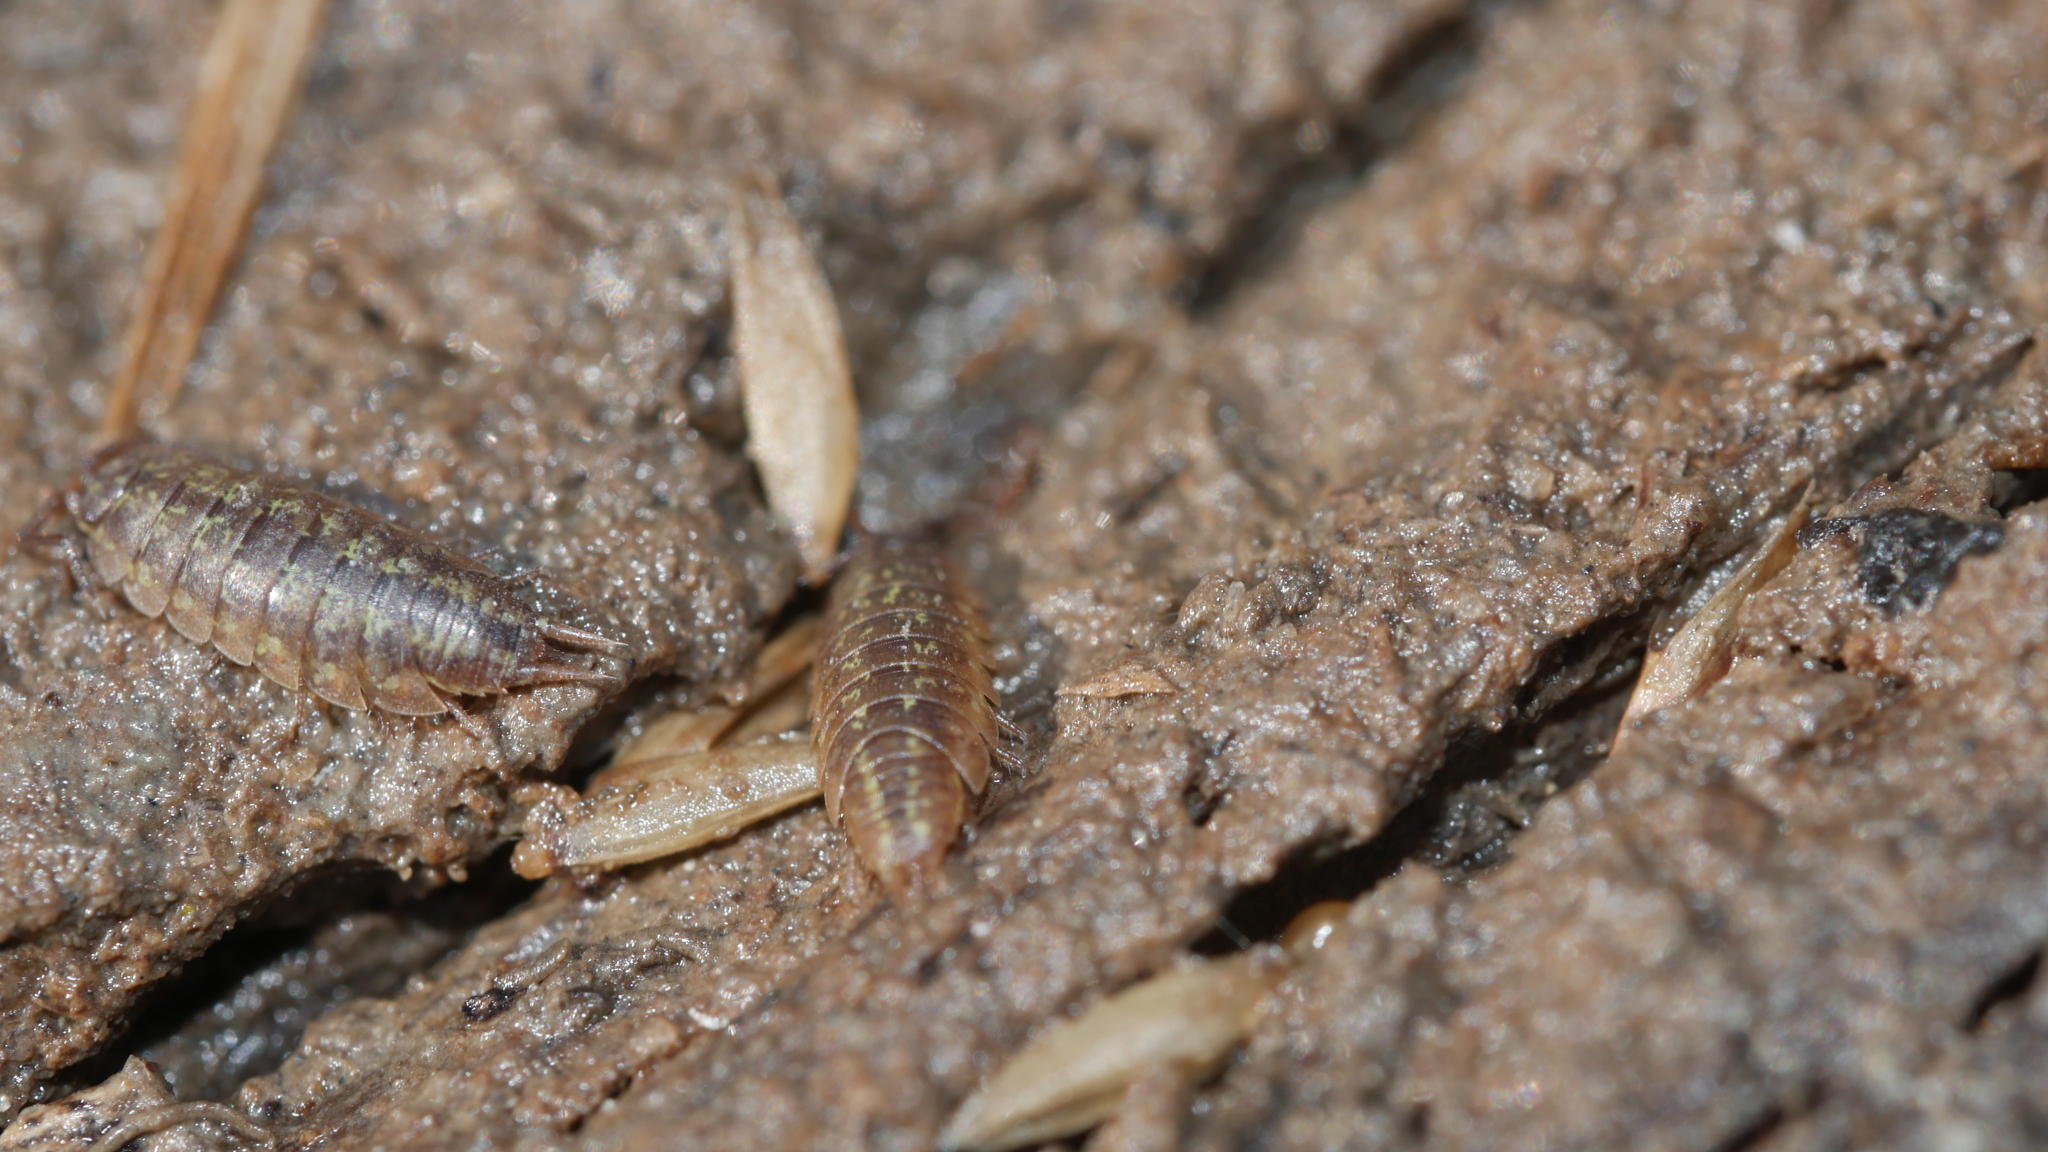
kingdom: Animalia
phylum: Arthropoda
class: Malacostraca
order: Isopoda
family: Halophilosciidae
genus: Littorophiloscia
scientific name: Littorophiloscia vittata
